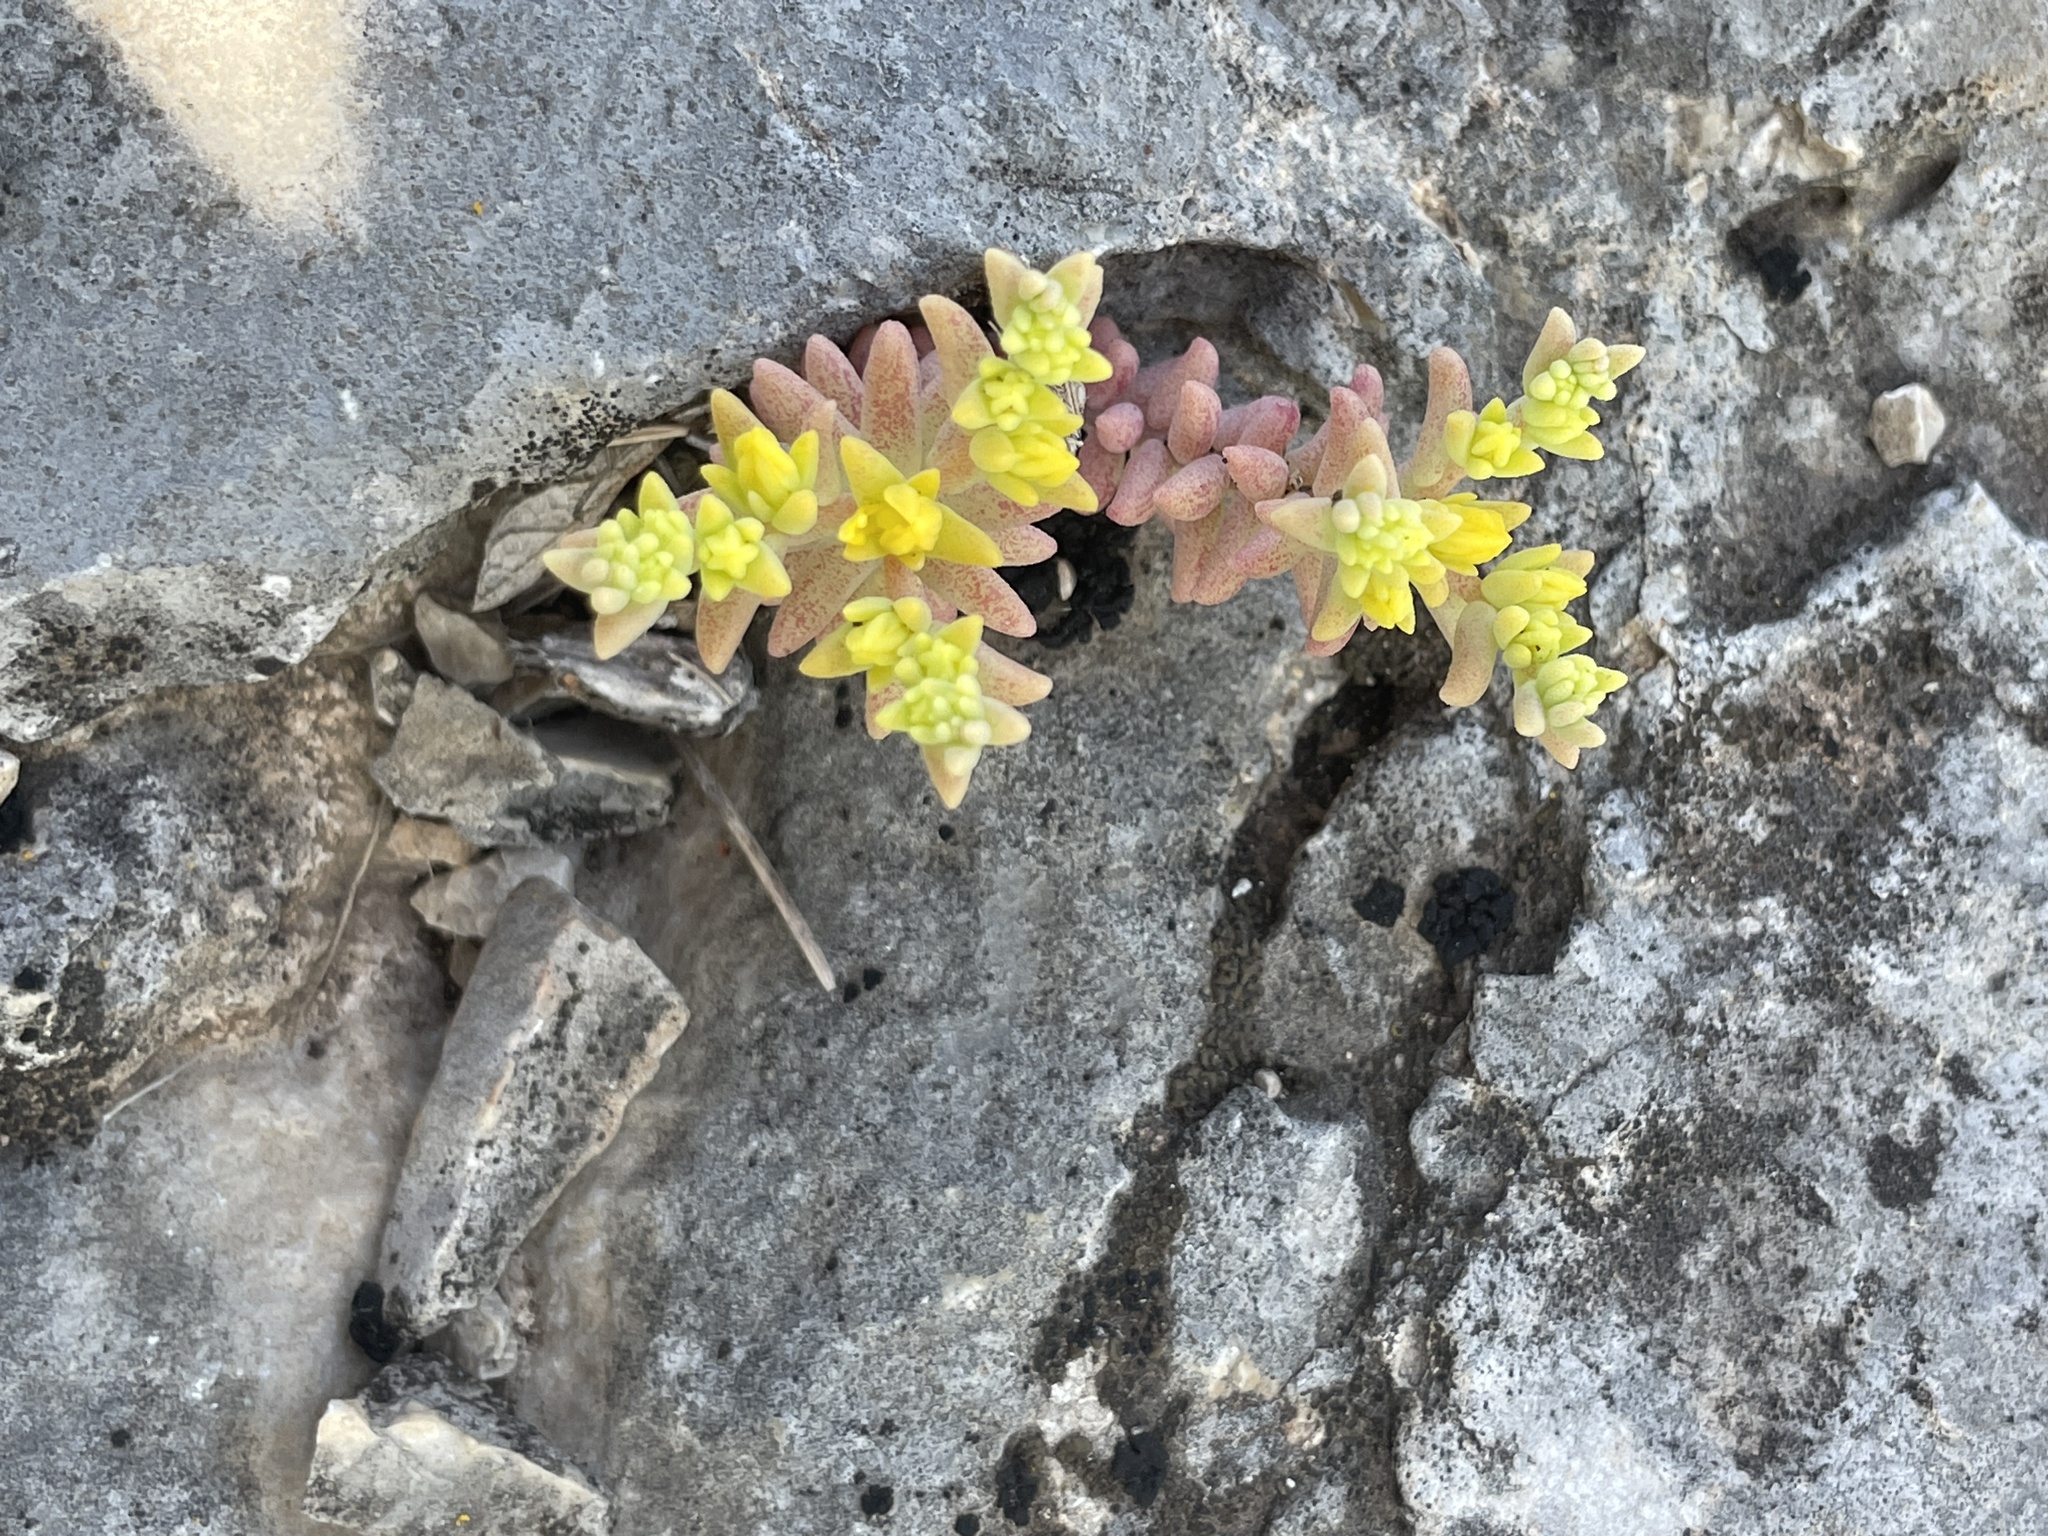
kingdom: Plantae
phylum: Tracheophyta
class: Magnoliopsida
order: Saxifragales
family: Crassulaceae
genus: Sedum
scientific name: Sedum nuttallii
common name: Yellow stonecrop
